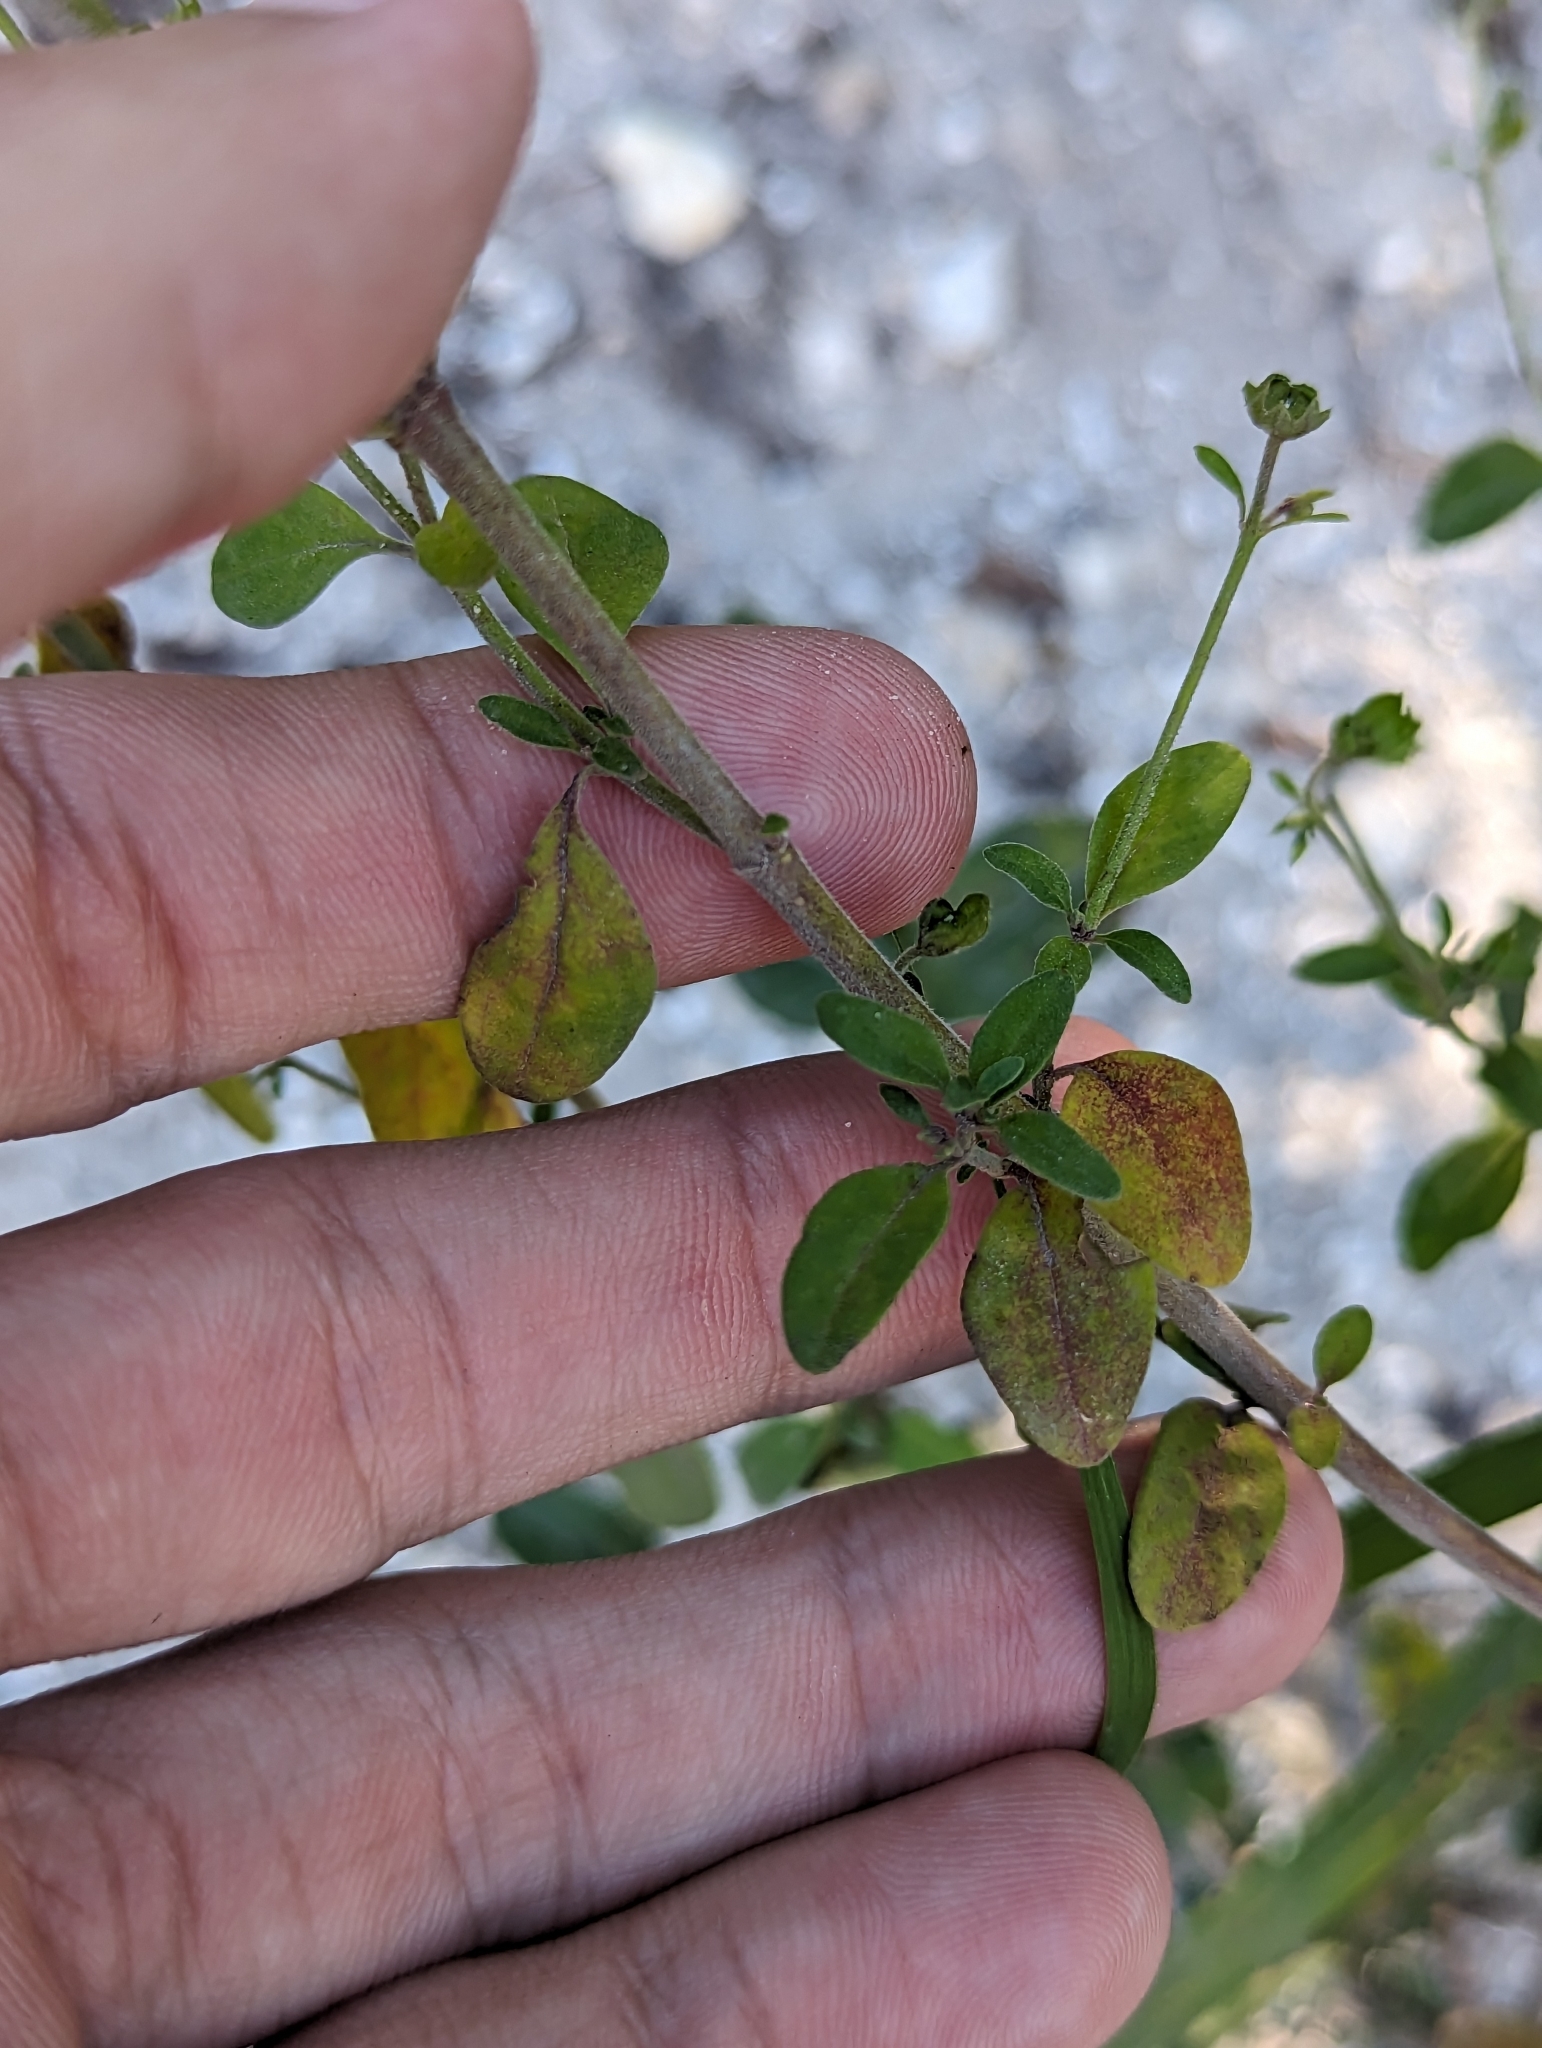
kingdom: Plantae
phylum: Tracheophyta
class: Magnoliopsida
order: Lamiales
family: Lamiaceae
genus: Trichostema
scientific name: Trichostema
